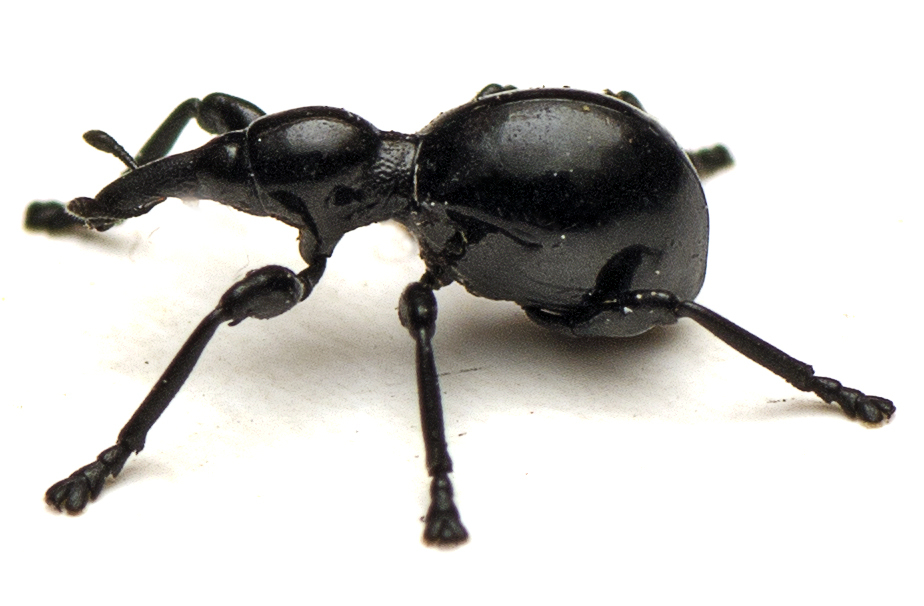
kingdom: Animalia
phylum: Arthropoda
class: Insecta
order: Coleoptera
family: Brentidae
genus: Rhynolaccus
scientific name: Rhynolaccus formicarius
